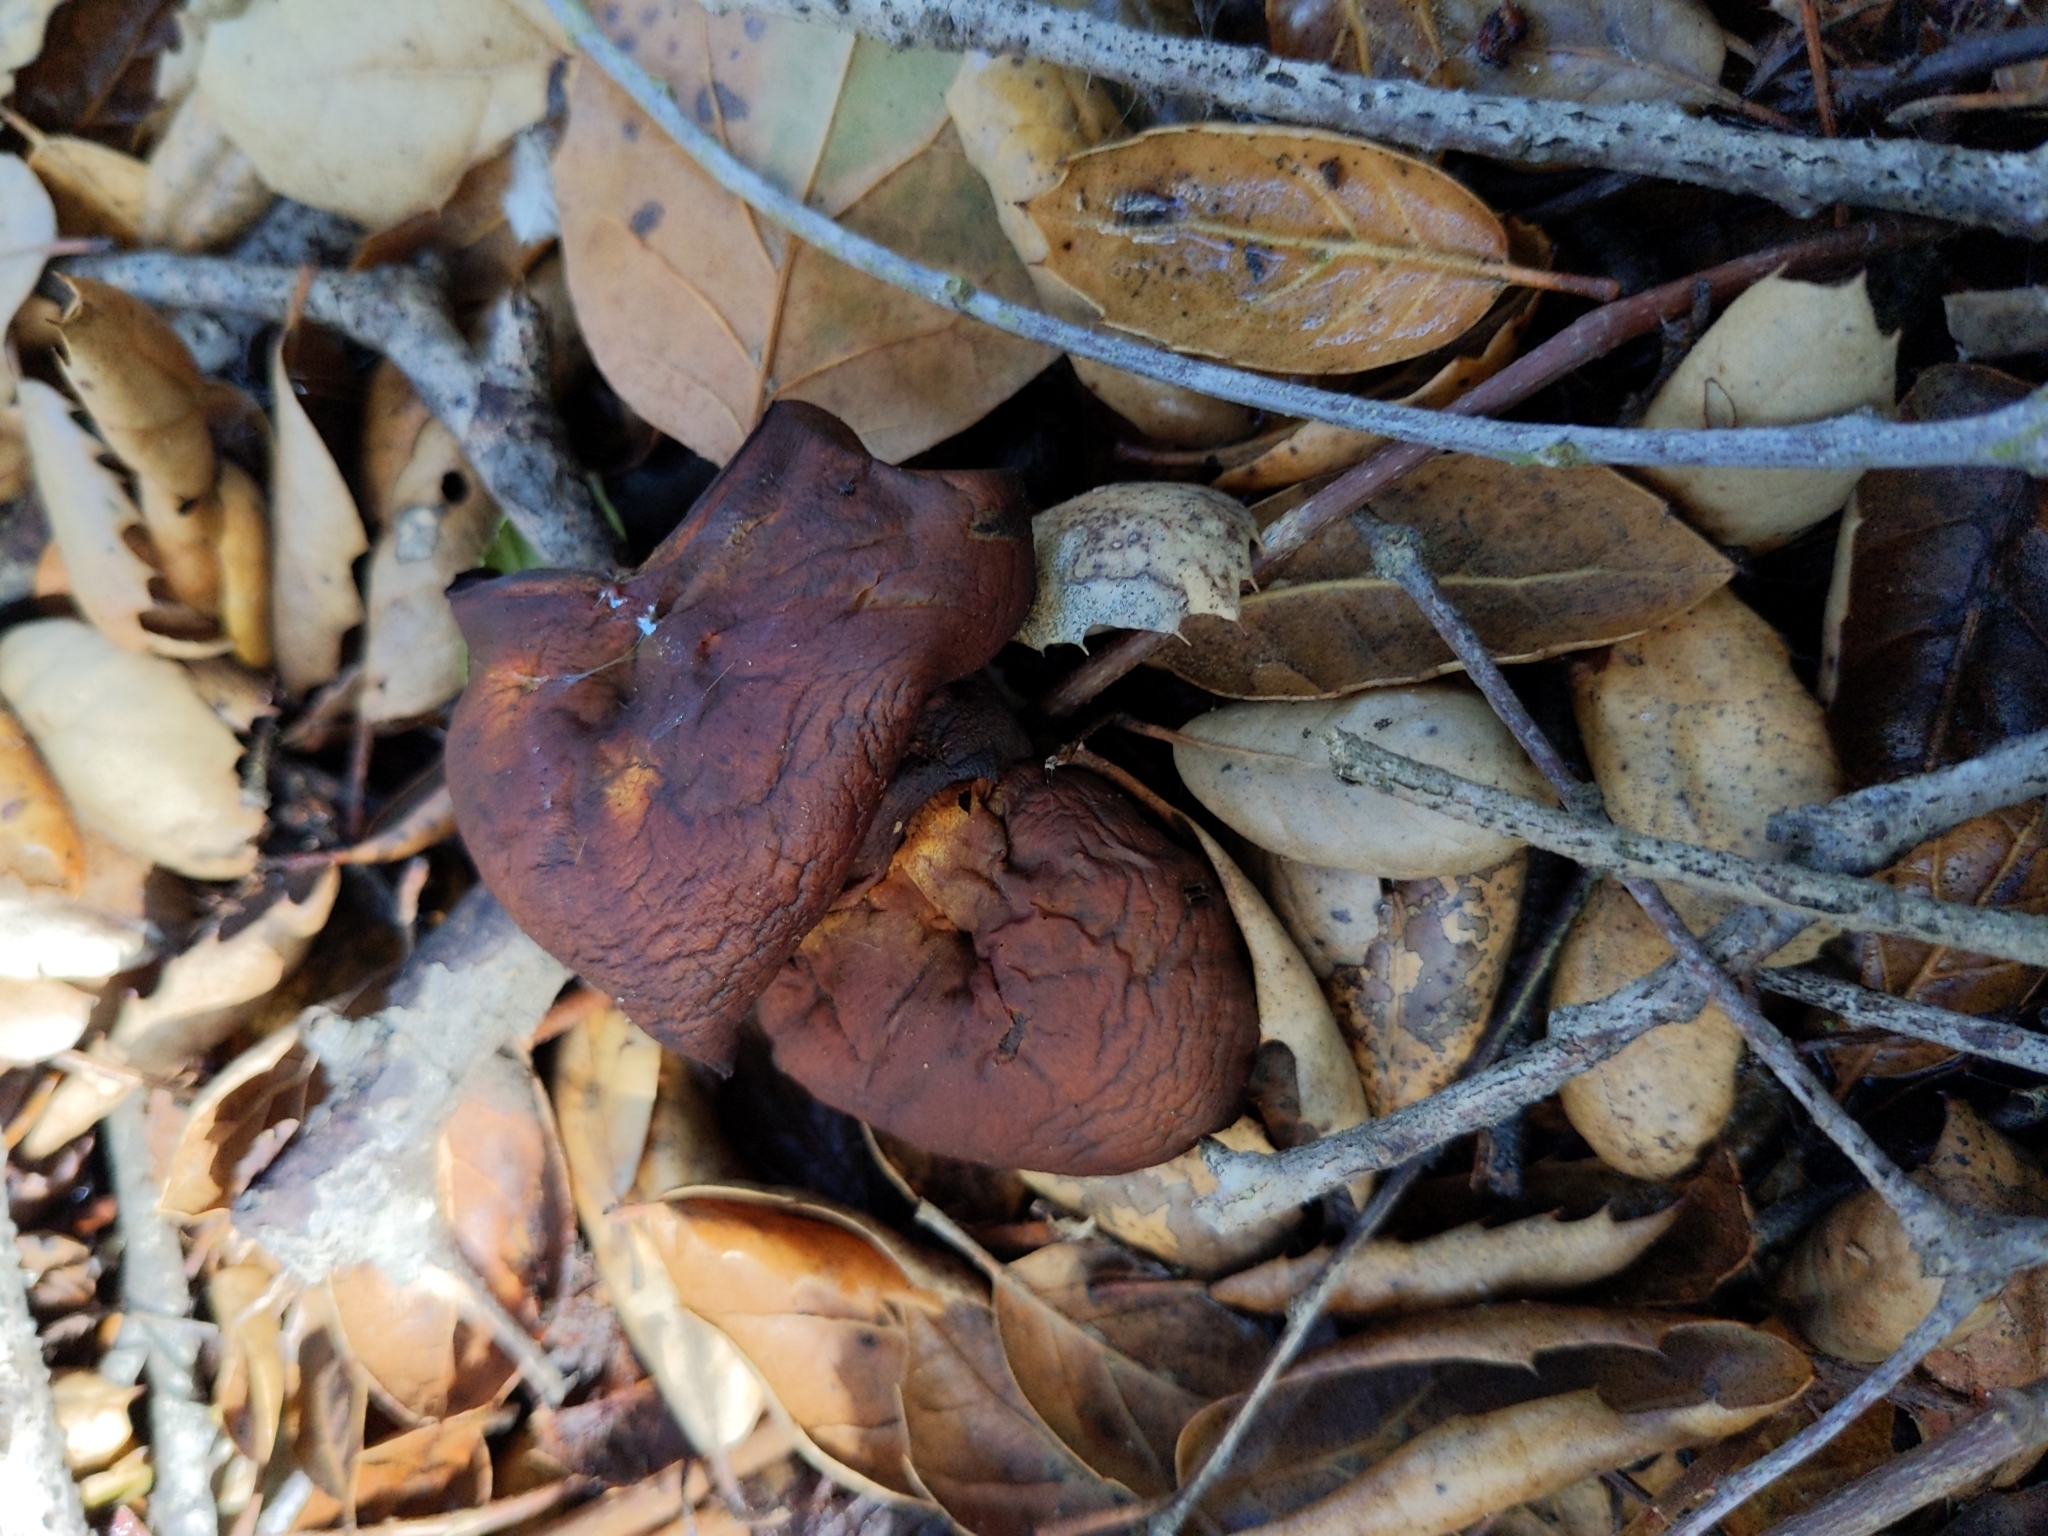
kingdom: Fungi
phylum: Basidiomycota
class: Agaricomycetes
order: Agaricales
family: Omphalotaceae
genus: Omphalotus
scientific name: Omphalotus olivascens
